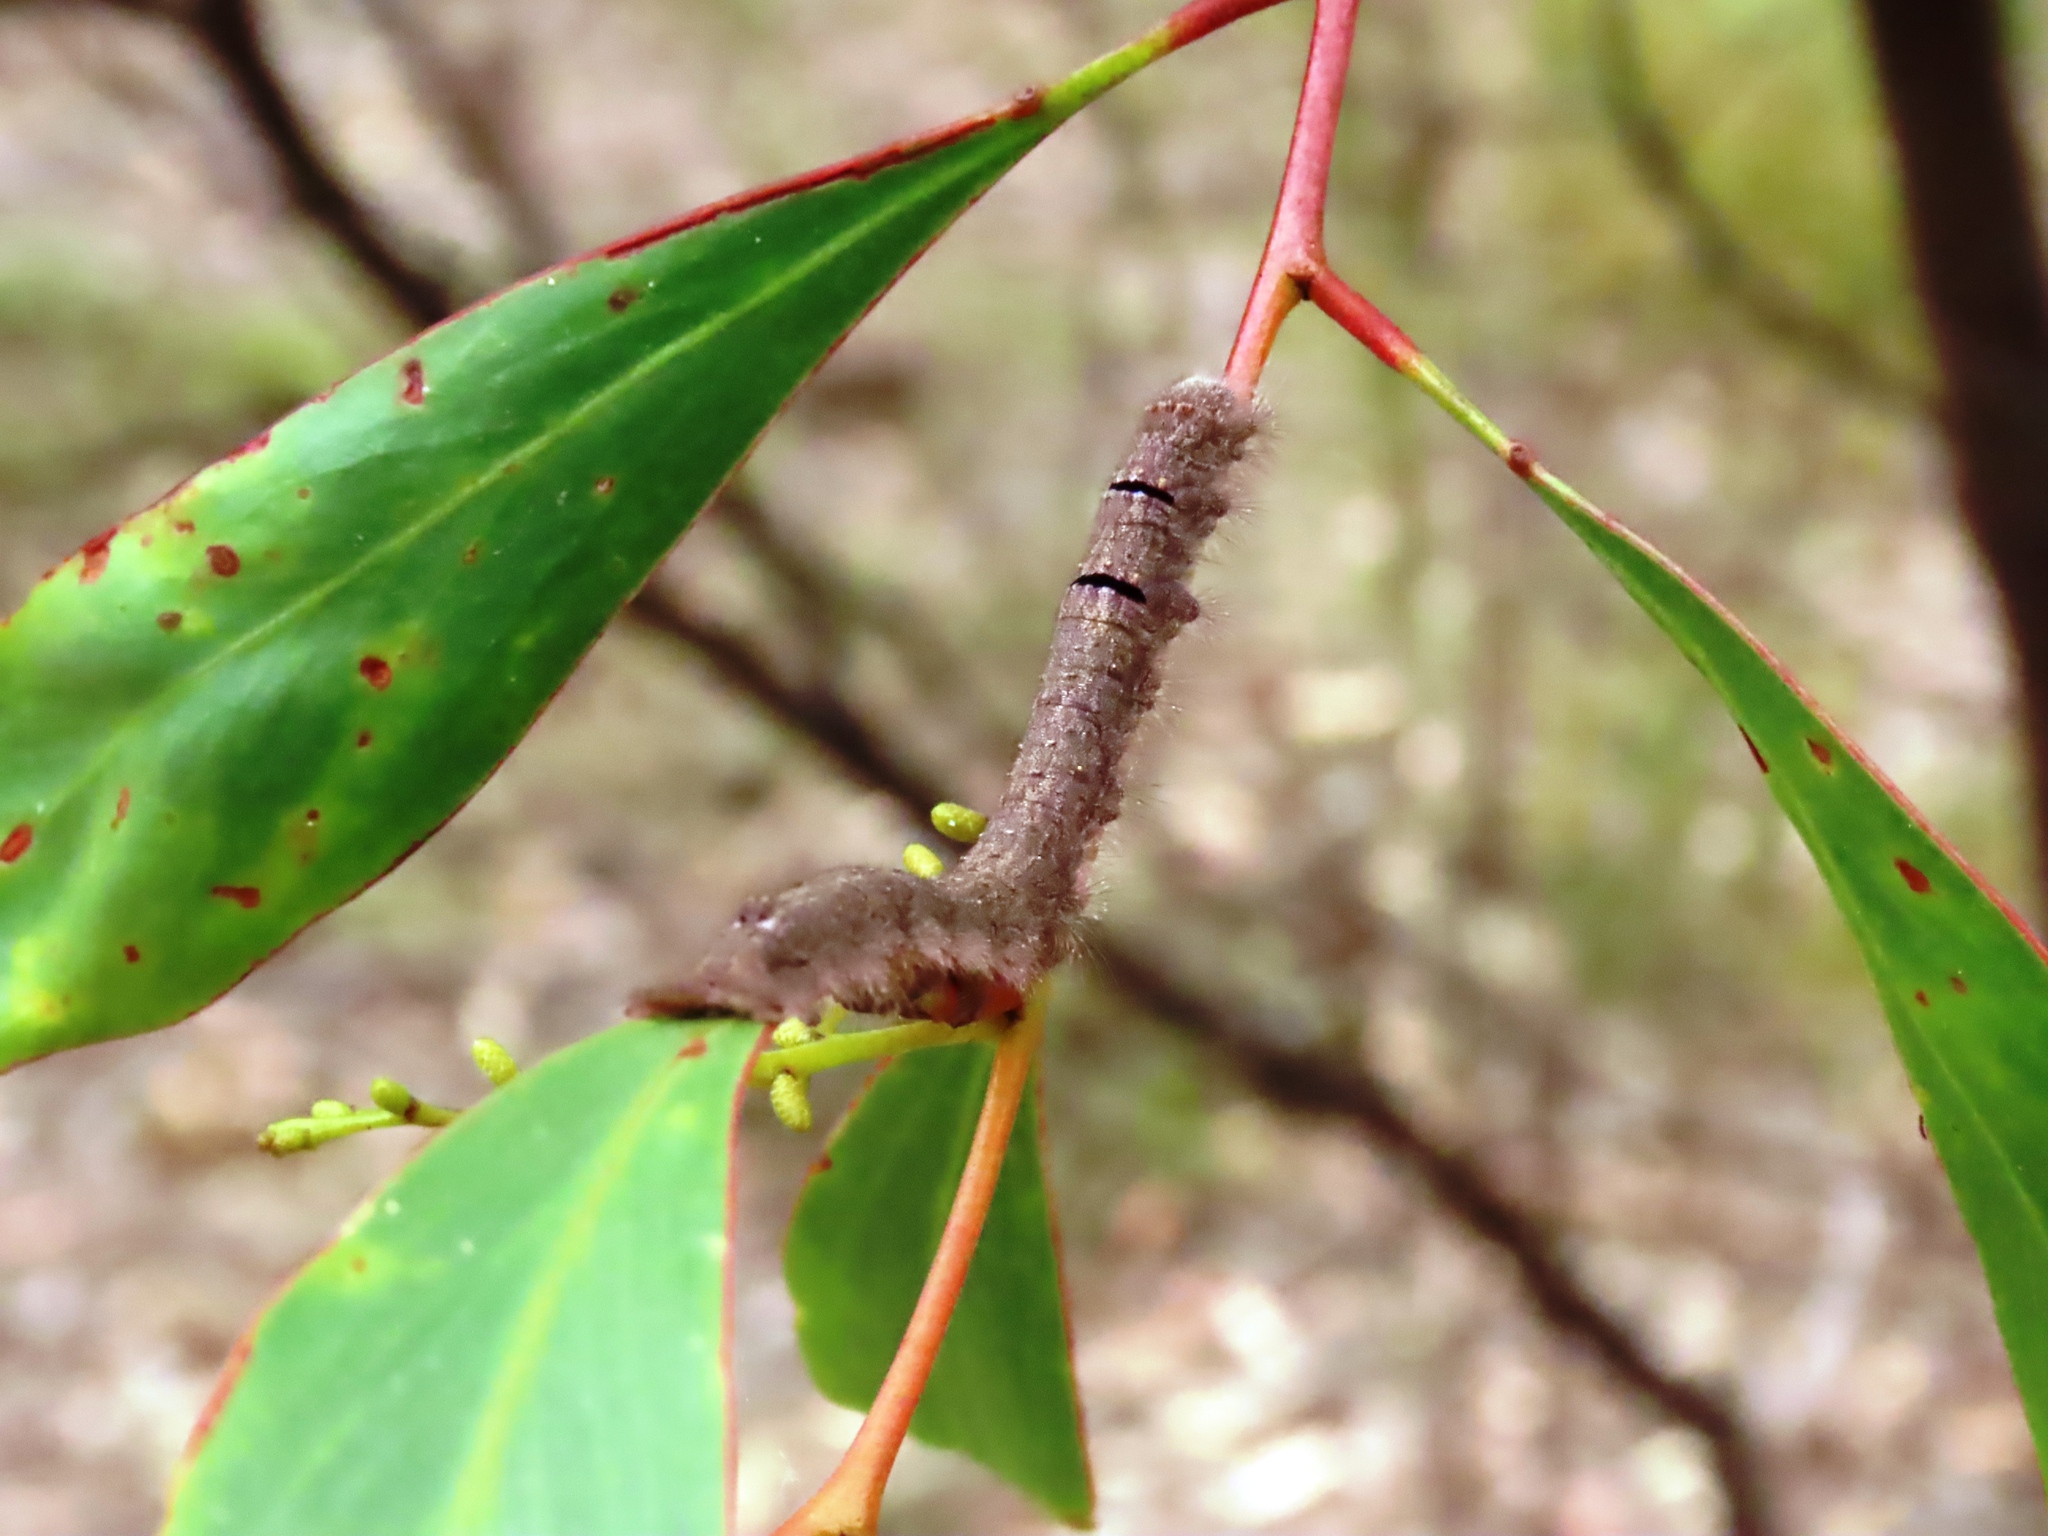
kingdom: Animalia
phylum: Arthropoda
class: Insecta
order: Lepidoptera
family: Lasiocampidae
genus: Pararguda
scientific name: Pararguda nasuta
